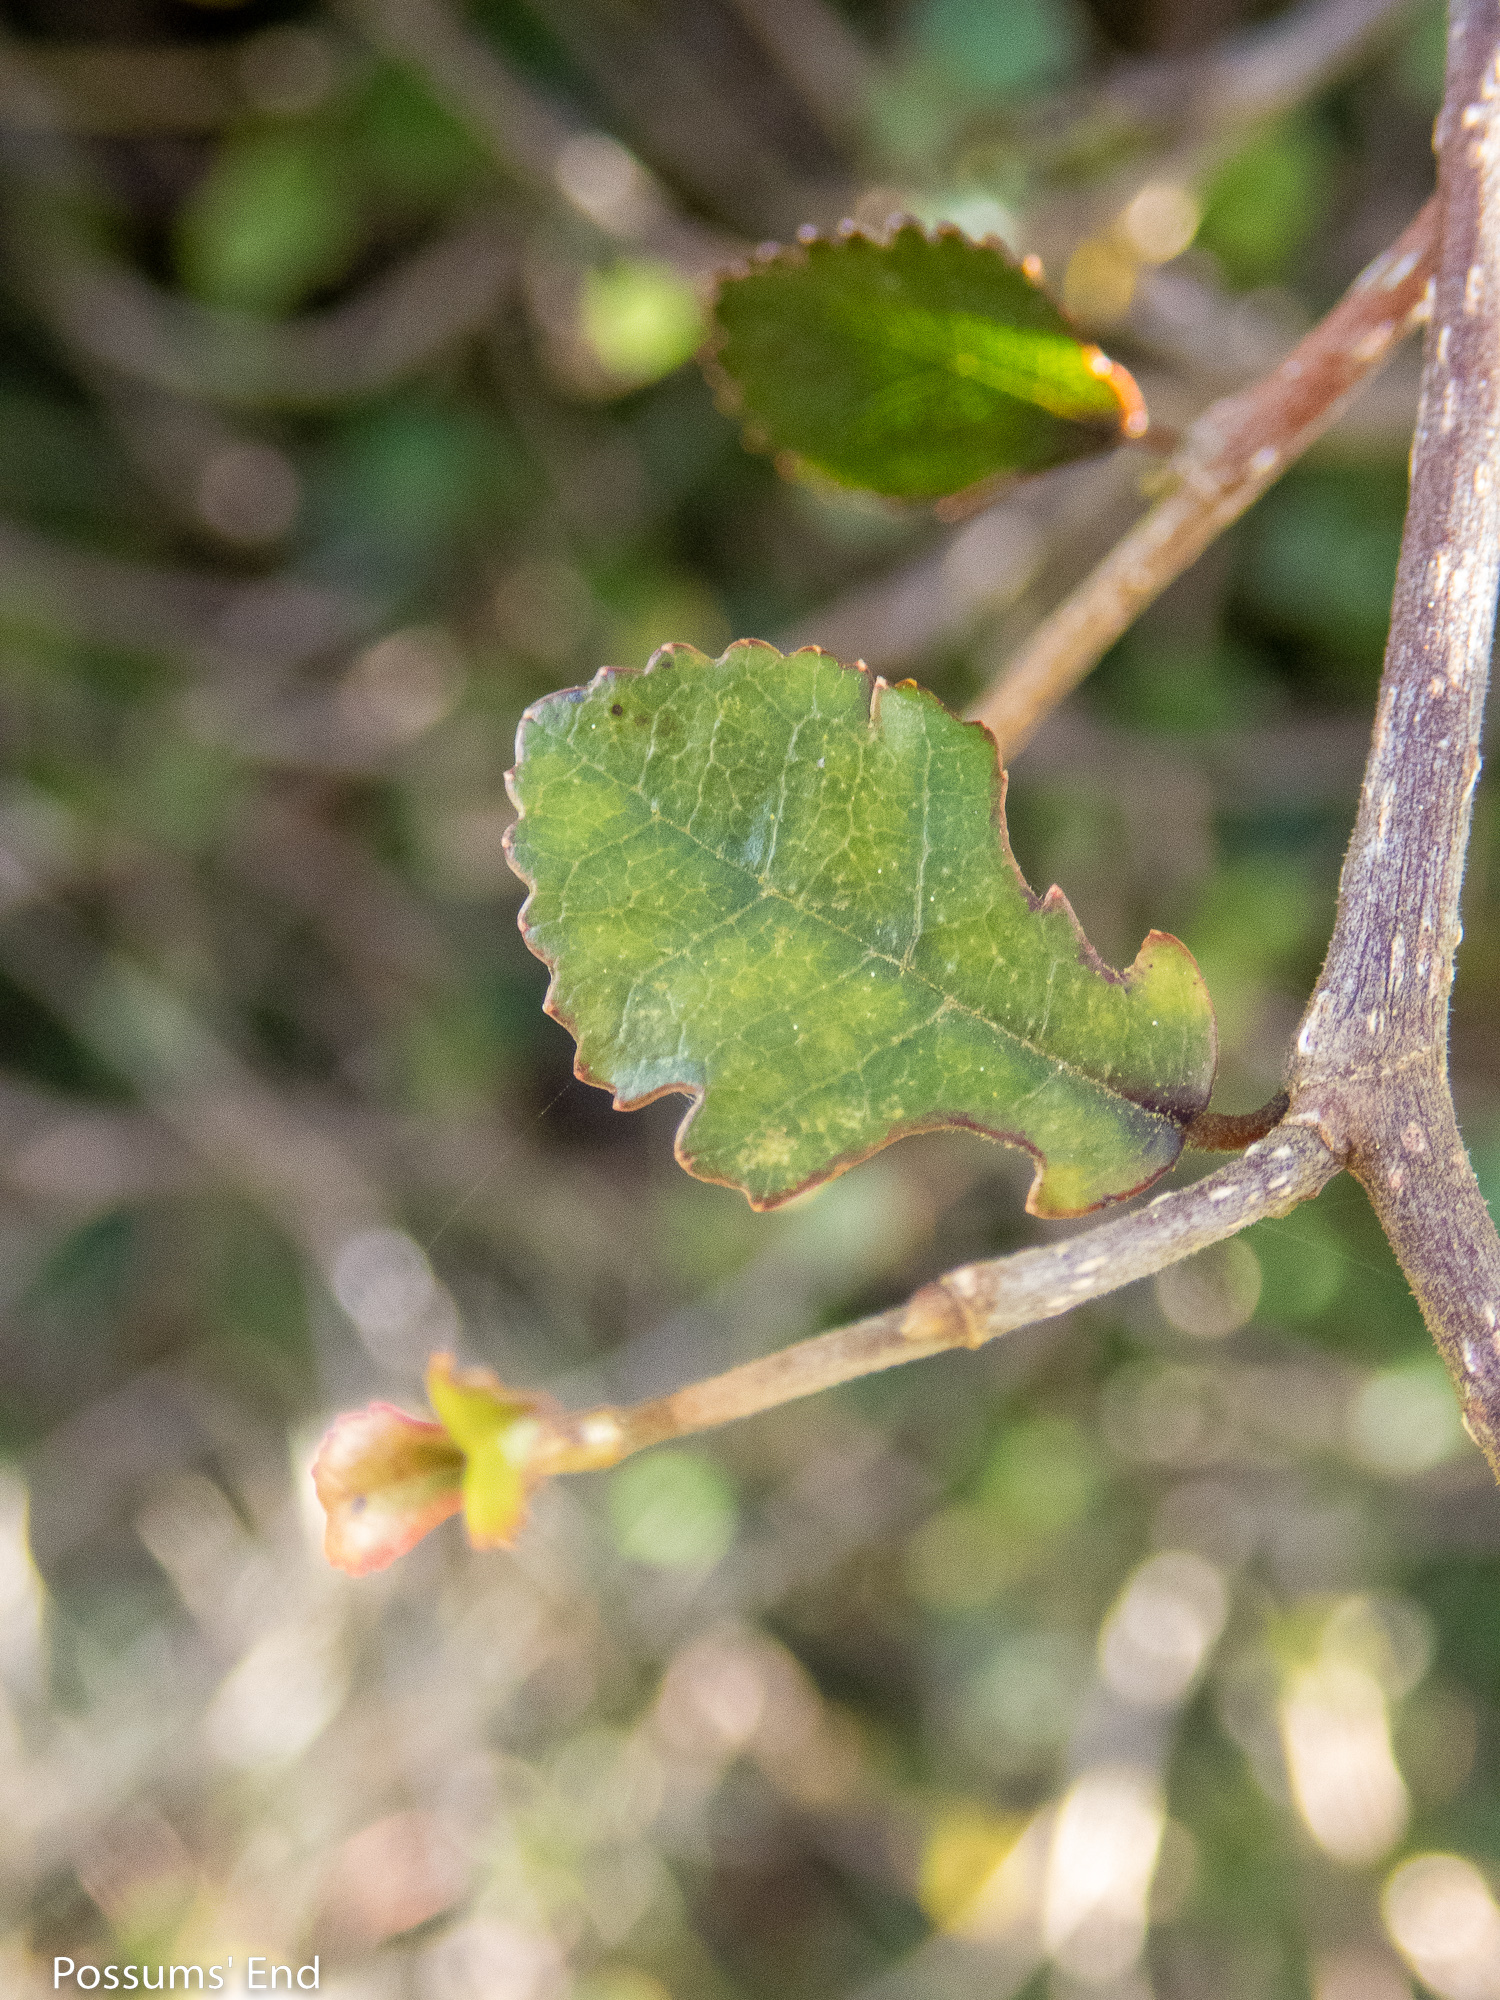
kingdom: Plantae
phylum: Tracheophyta
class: Magnoliopsida
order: Rosales
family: Moraceae
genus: Paratrophis
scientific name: Paratrophis microphylla
